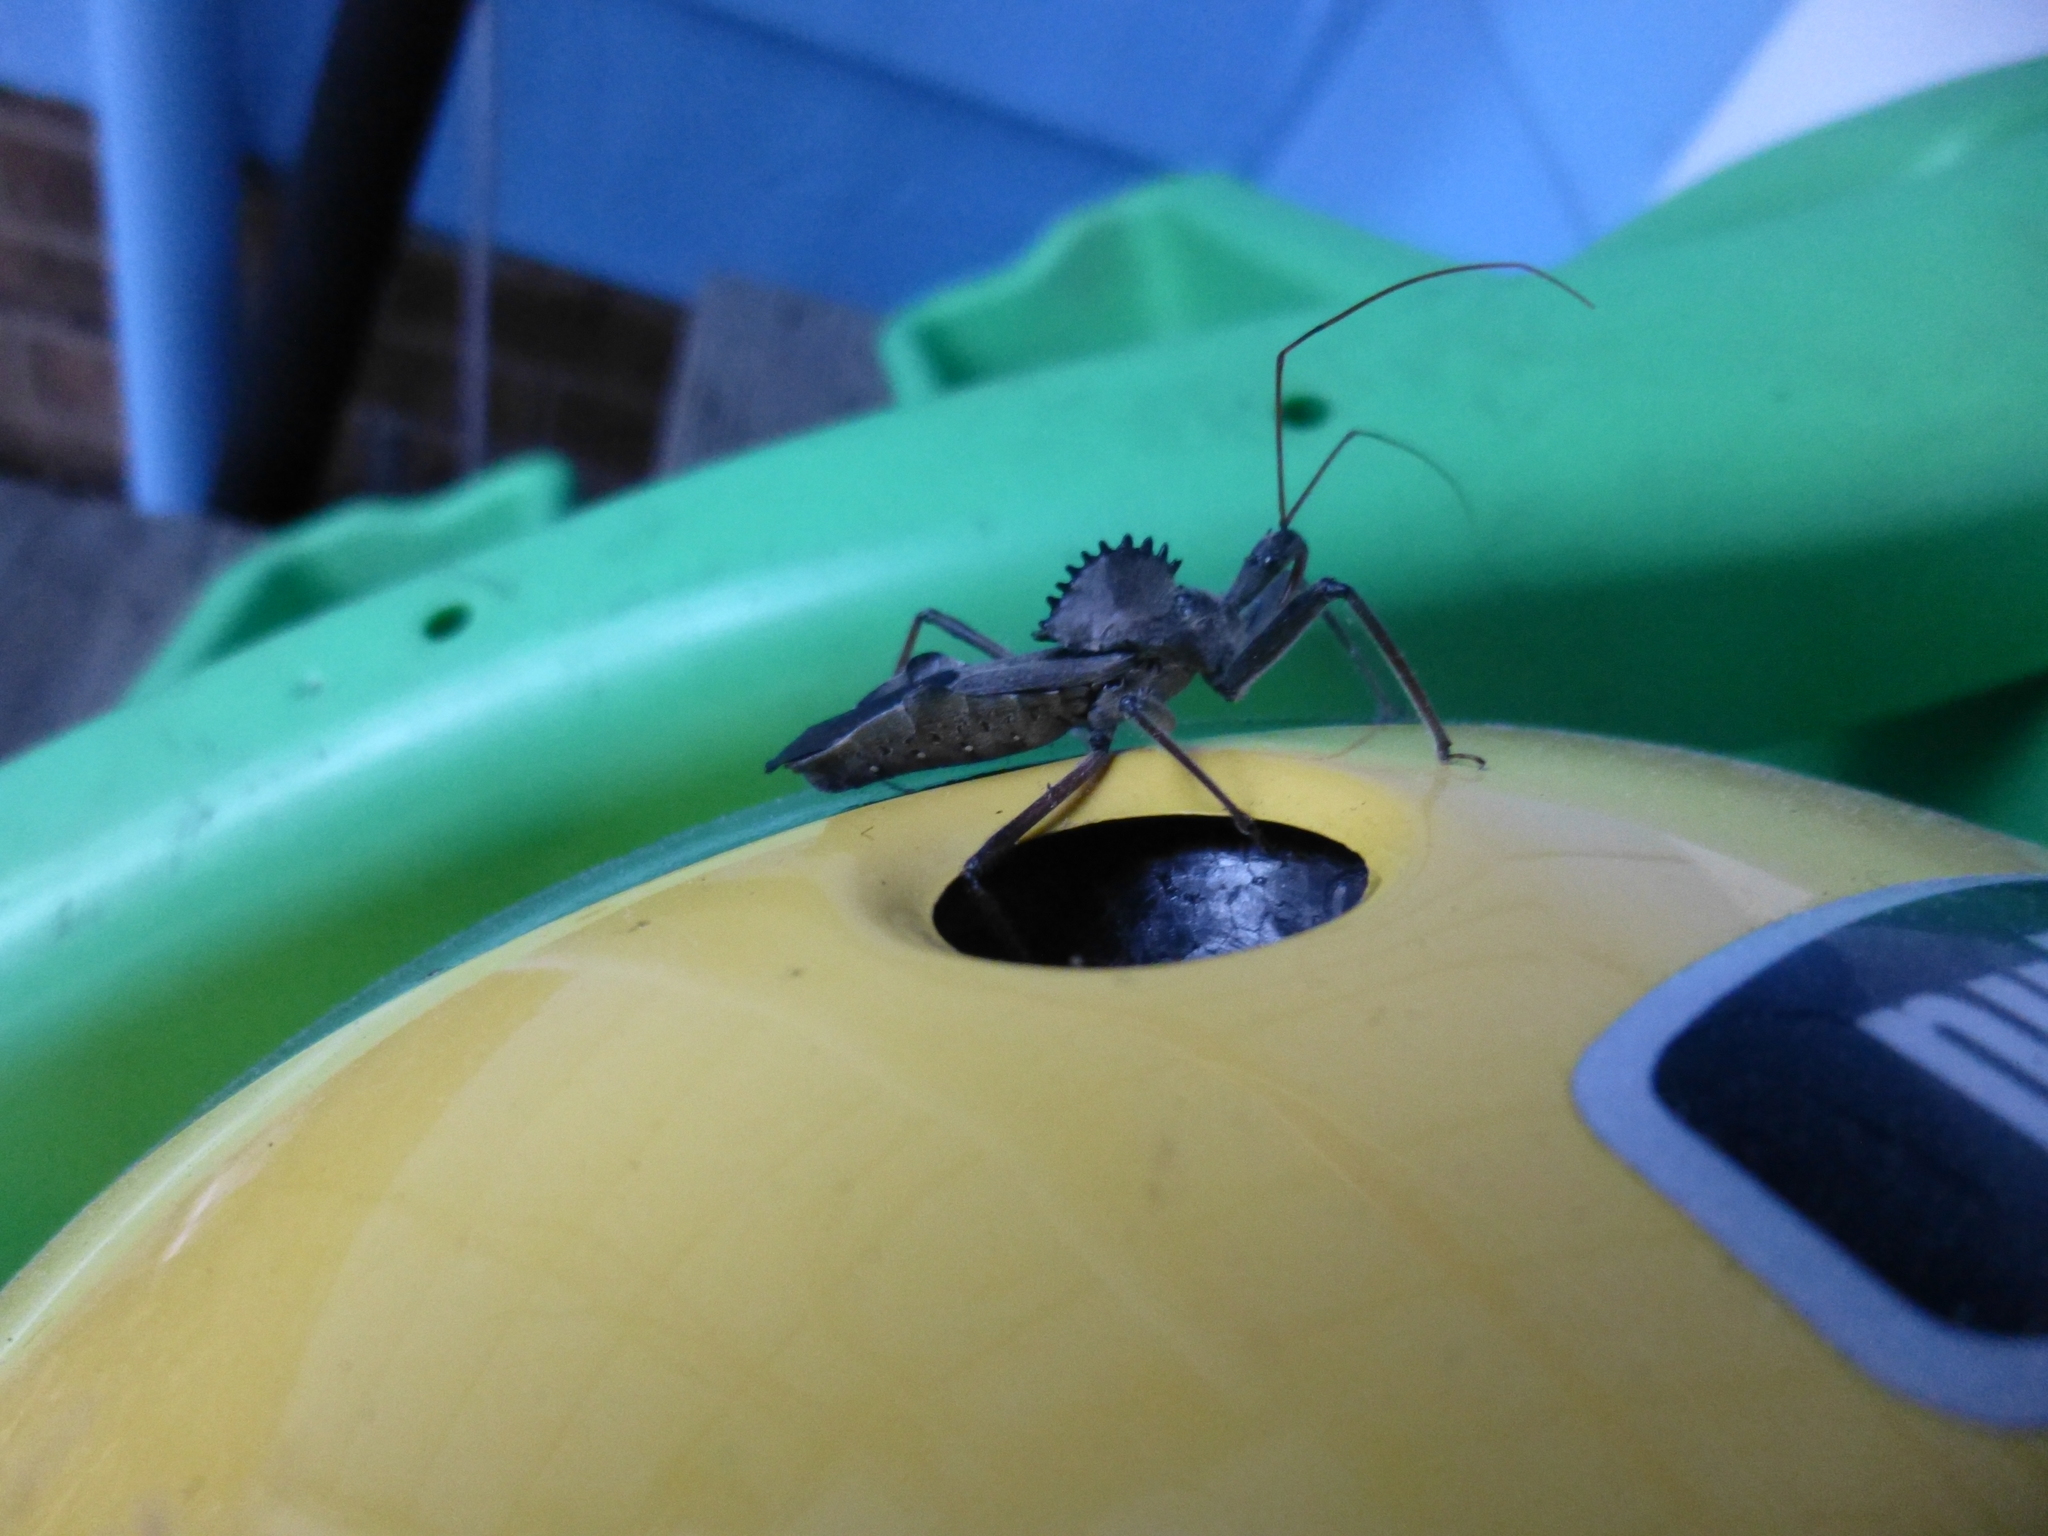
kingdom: Animalia
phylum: Arthropoda
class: Insecta
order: Hemiptera
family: Reduviidae
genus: Arilus
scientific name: Arilus cristatus
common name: North american wheel bug
